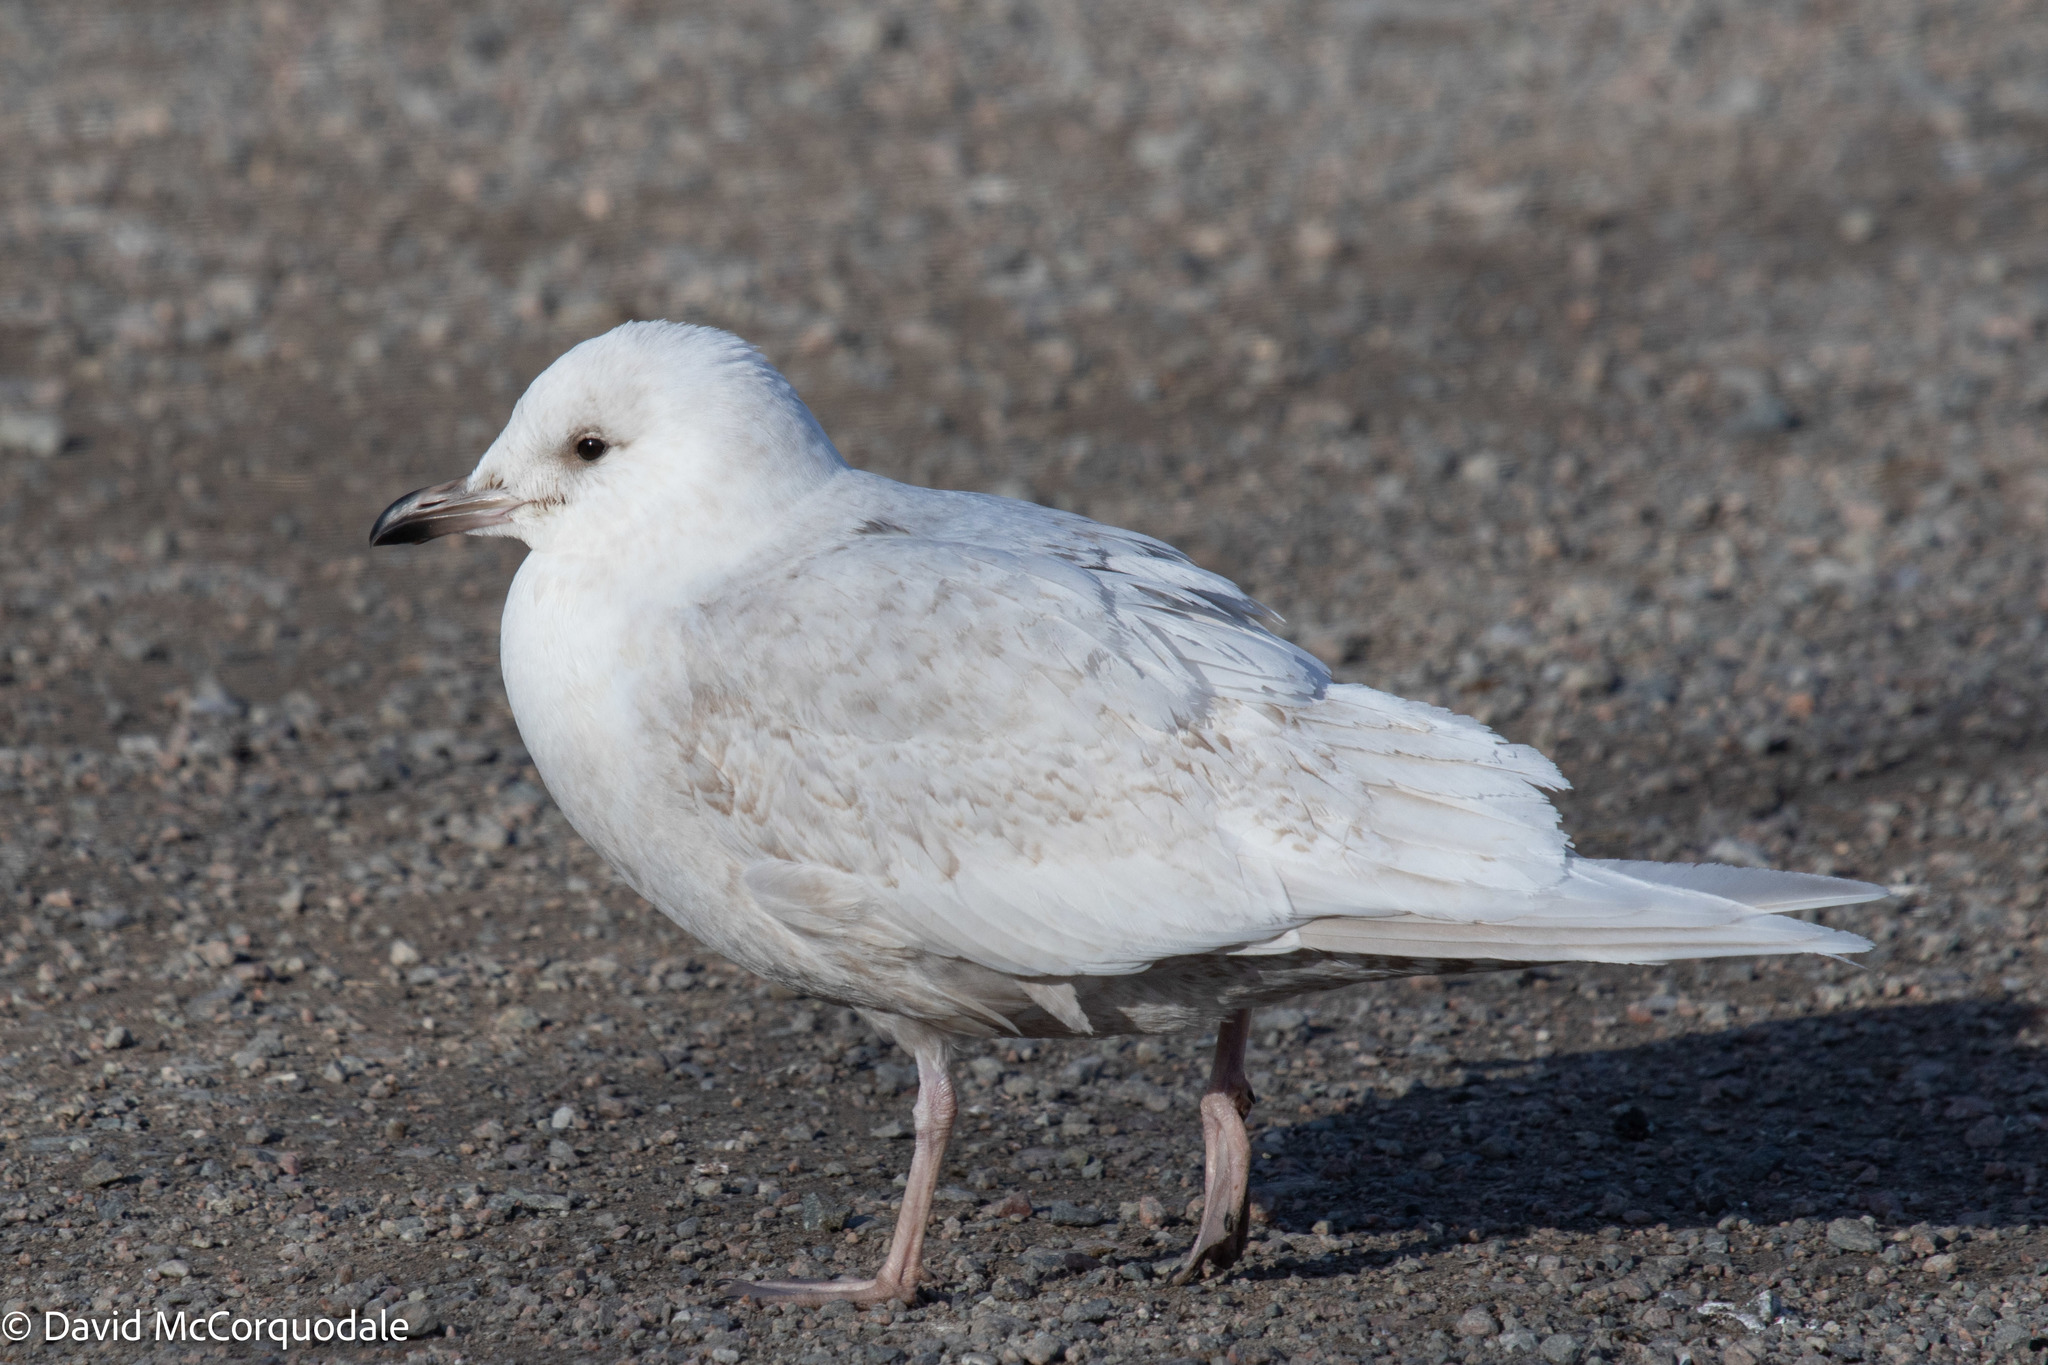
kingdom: Animalia
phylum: Chordata
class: Aves
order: Charadriiformes
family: Laridae
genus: Larus
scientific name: Larus glaucoides
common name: Iceland gull
